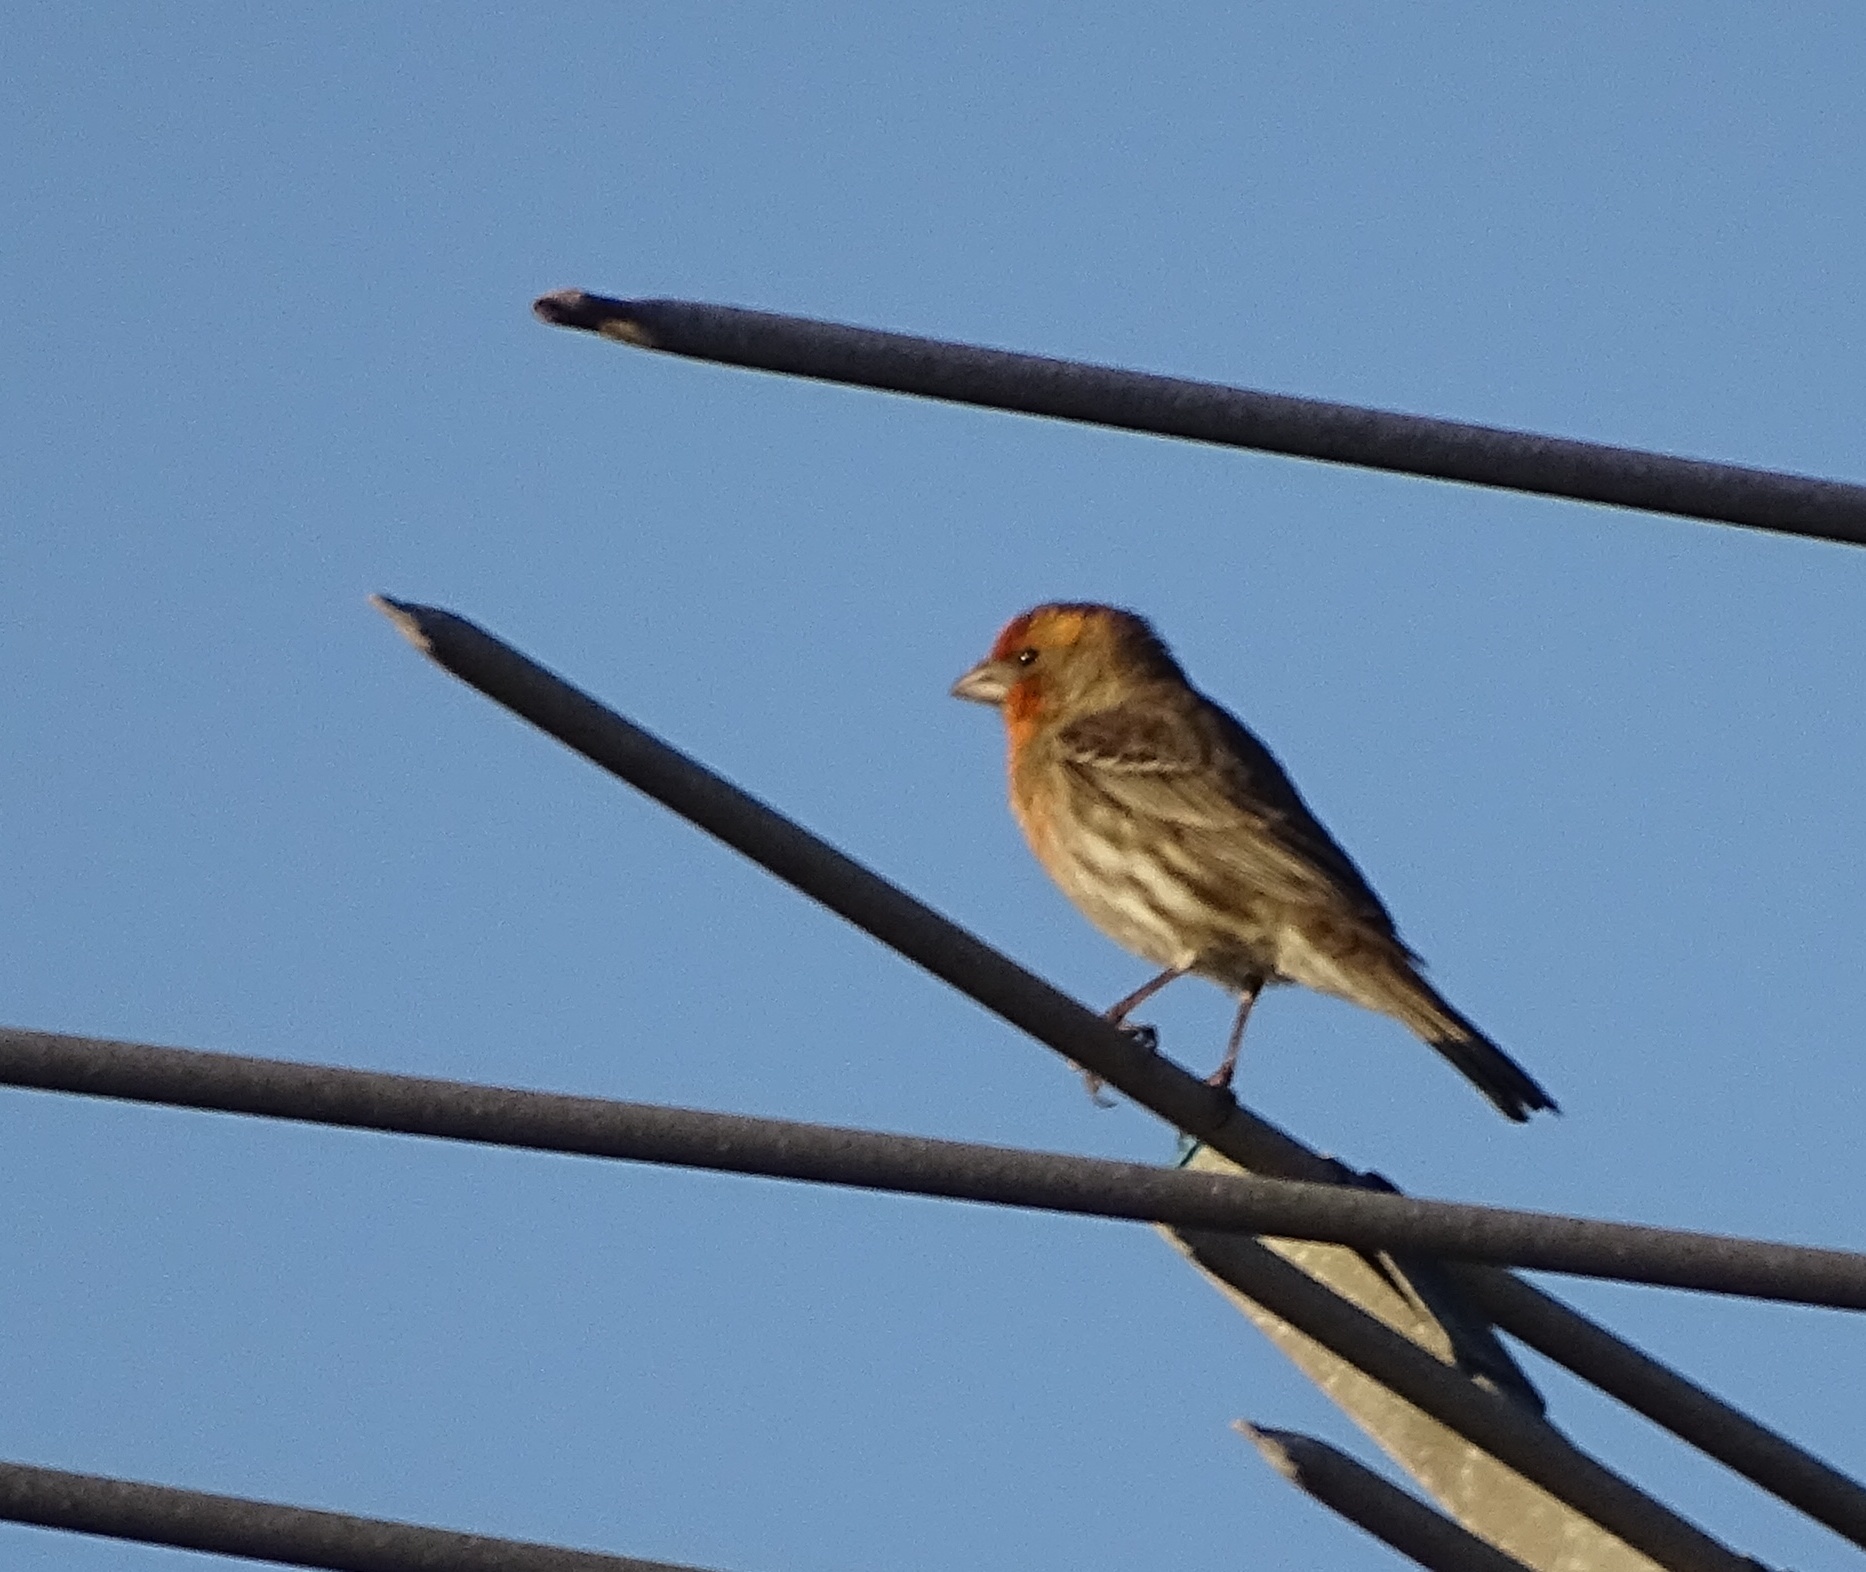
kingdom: Animalia
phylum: Chordata
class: Aves
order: Passeriformes
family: Fringillidae
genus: Haemorhous
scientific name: Haemorhous mexicanus
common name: House finch
